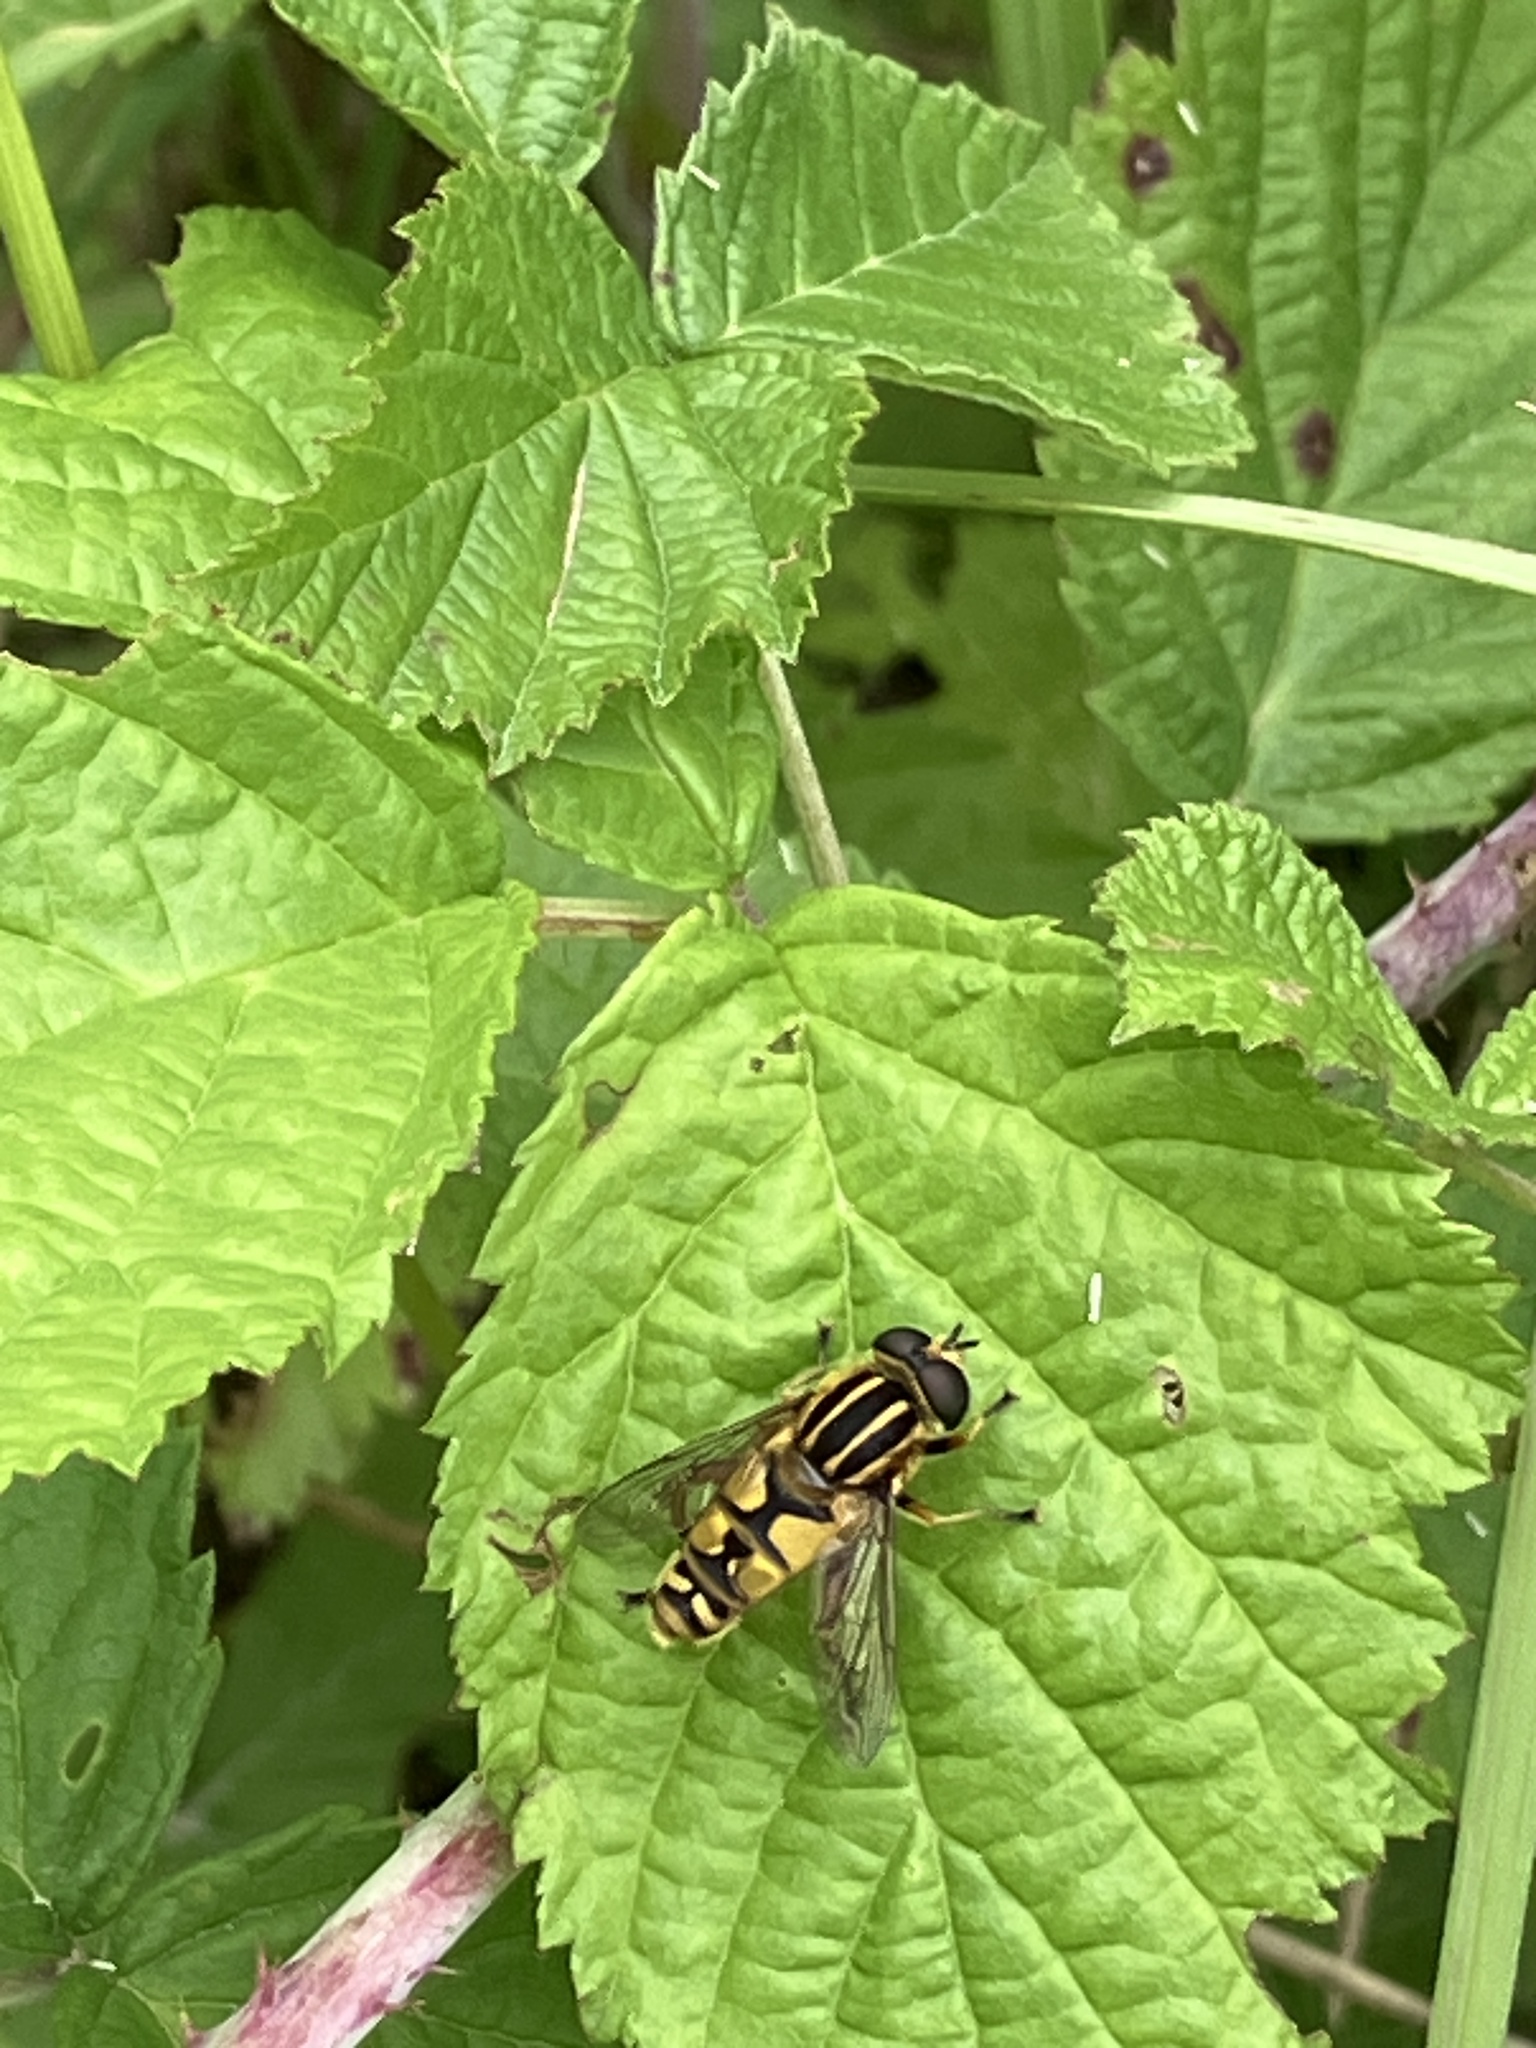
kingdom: Animalia
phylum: Arthropoda
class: Insecta
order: Diptera
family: Syrphidae
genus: Helophilus
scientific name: Helophilus pendulus
